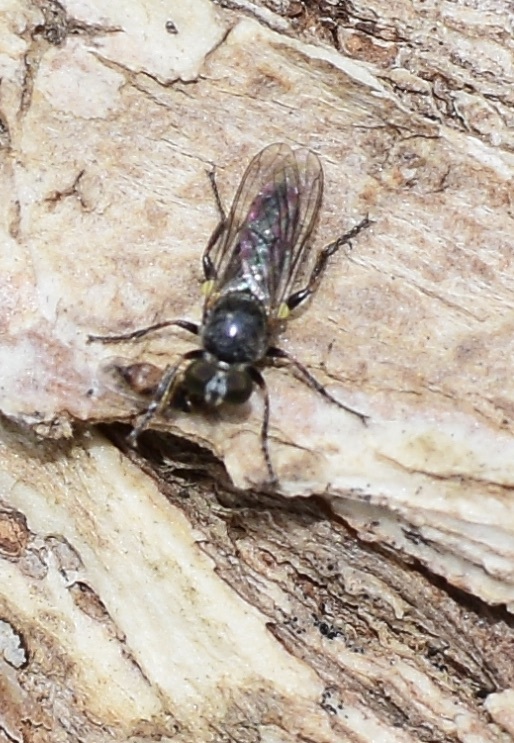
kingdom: Animalia
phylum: Arthropoda
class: Insecta
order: Diptera
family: Asilidae
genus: Atomosia
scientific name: Atomosia puella
